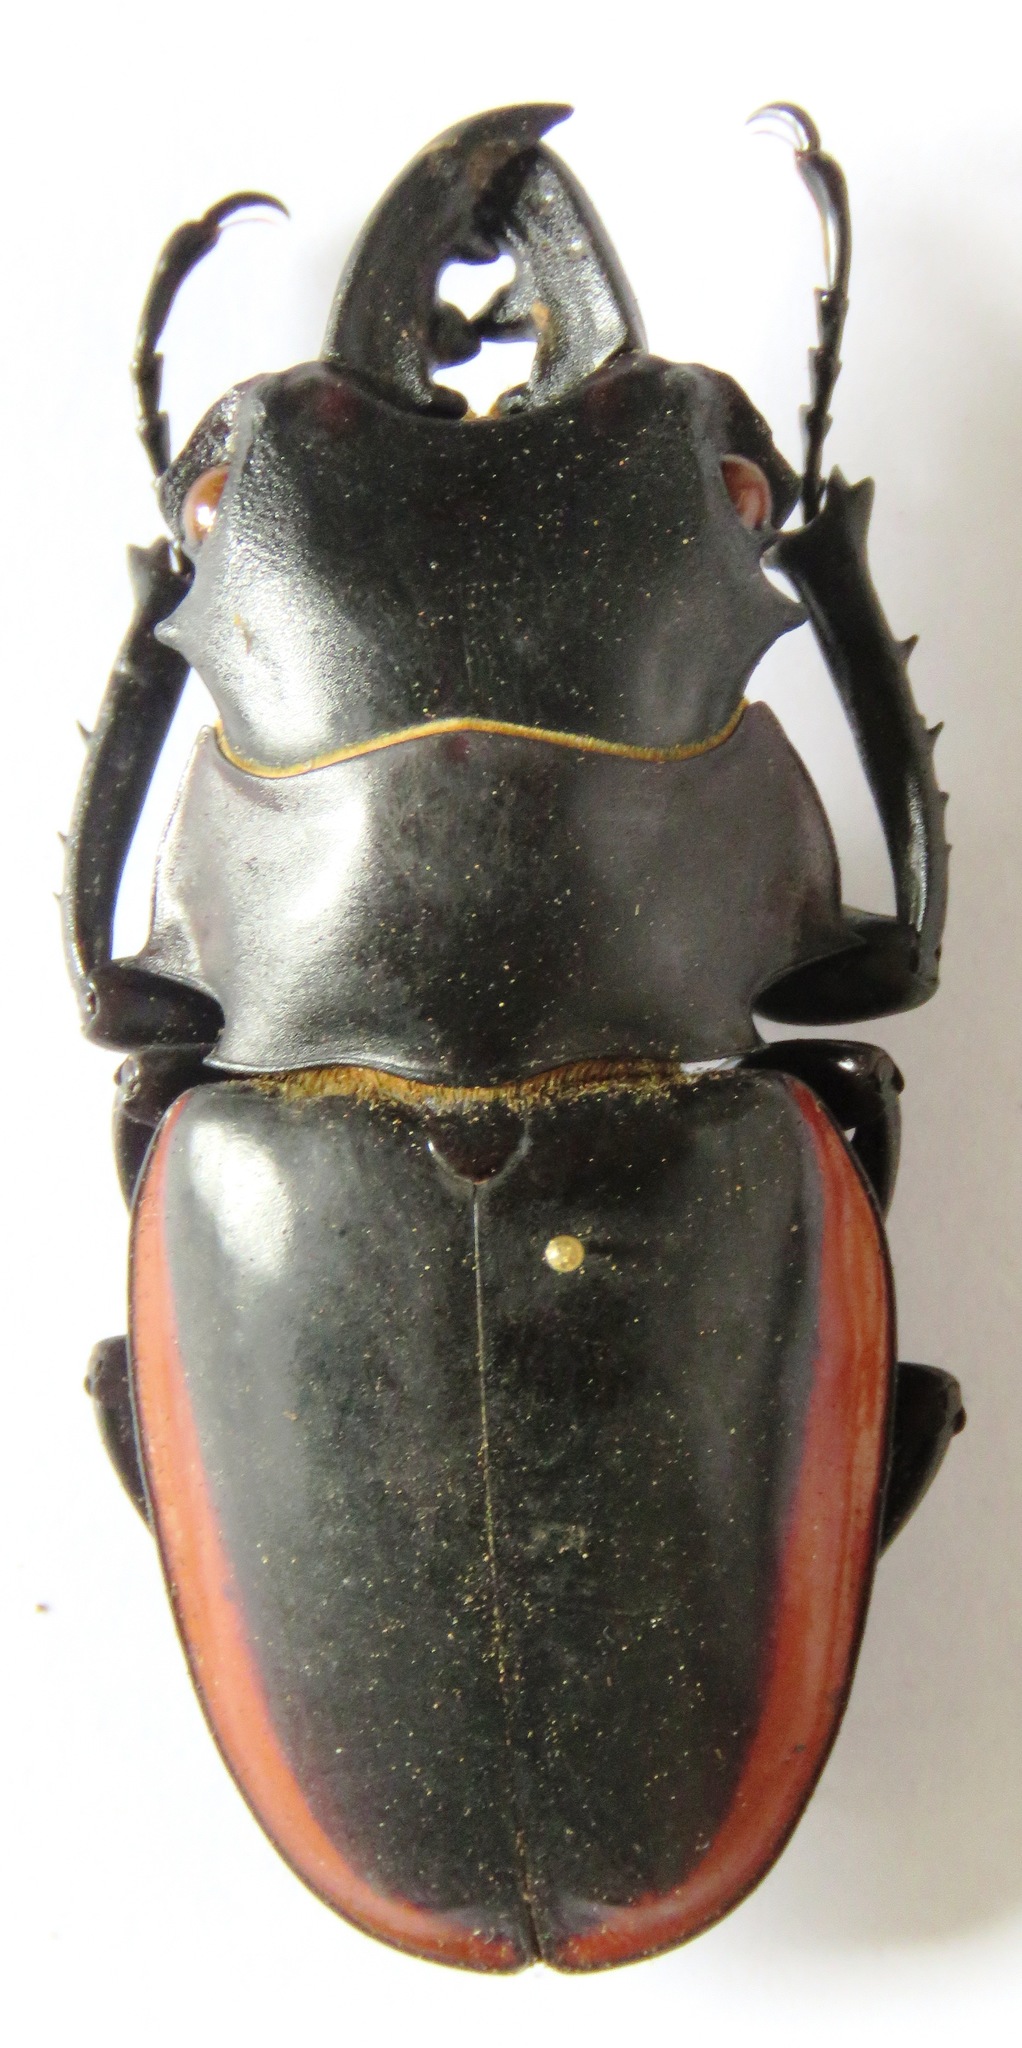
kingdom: Animalia
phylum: Arthropoda
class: Insecta
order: Coleoptera
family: Lucanidae
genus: Odontolabis
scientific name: Odontolabis cuvera
